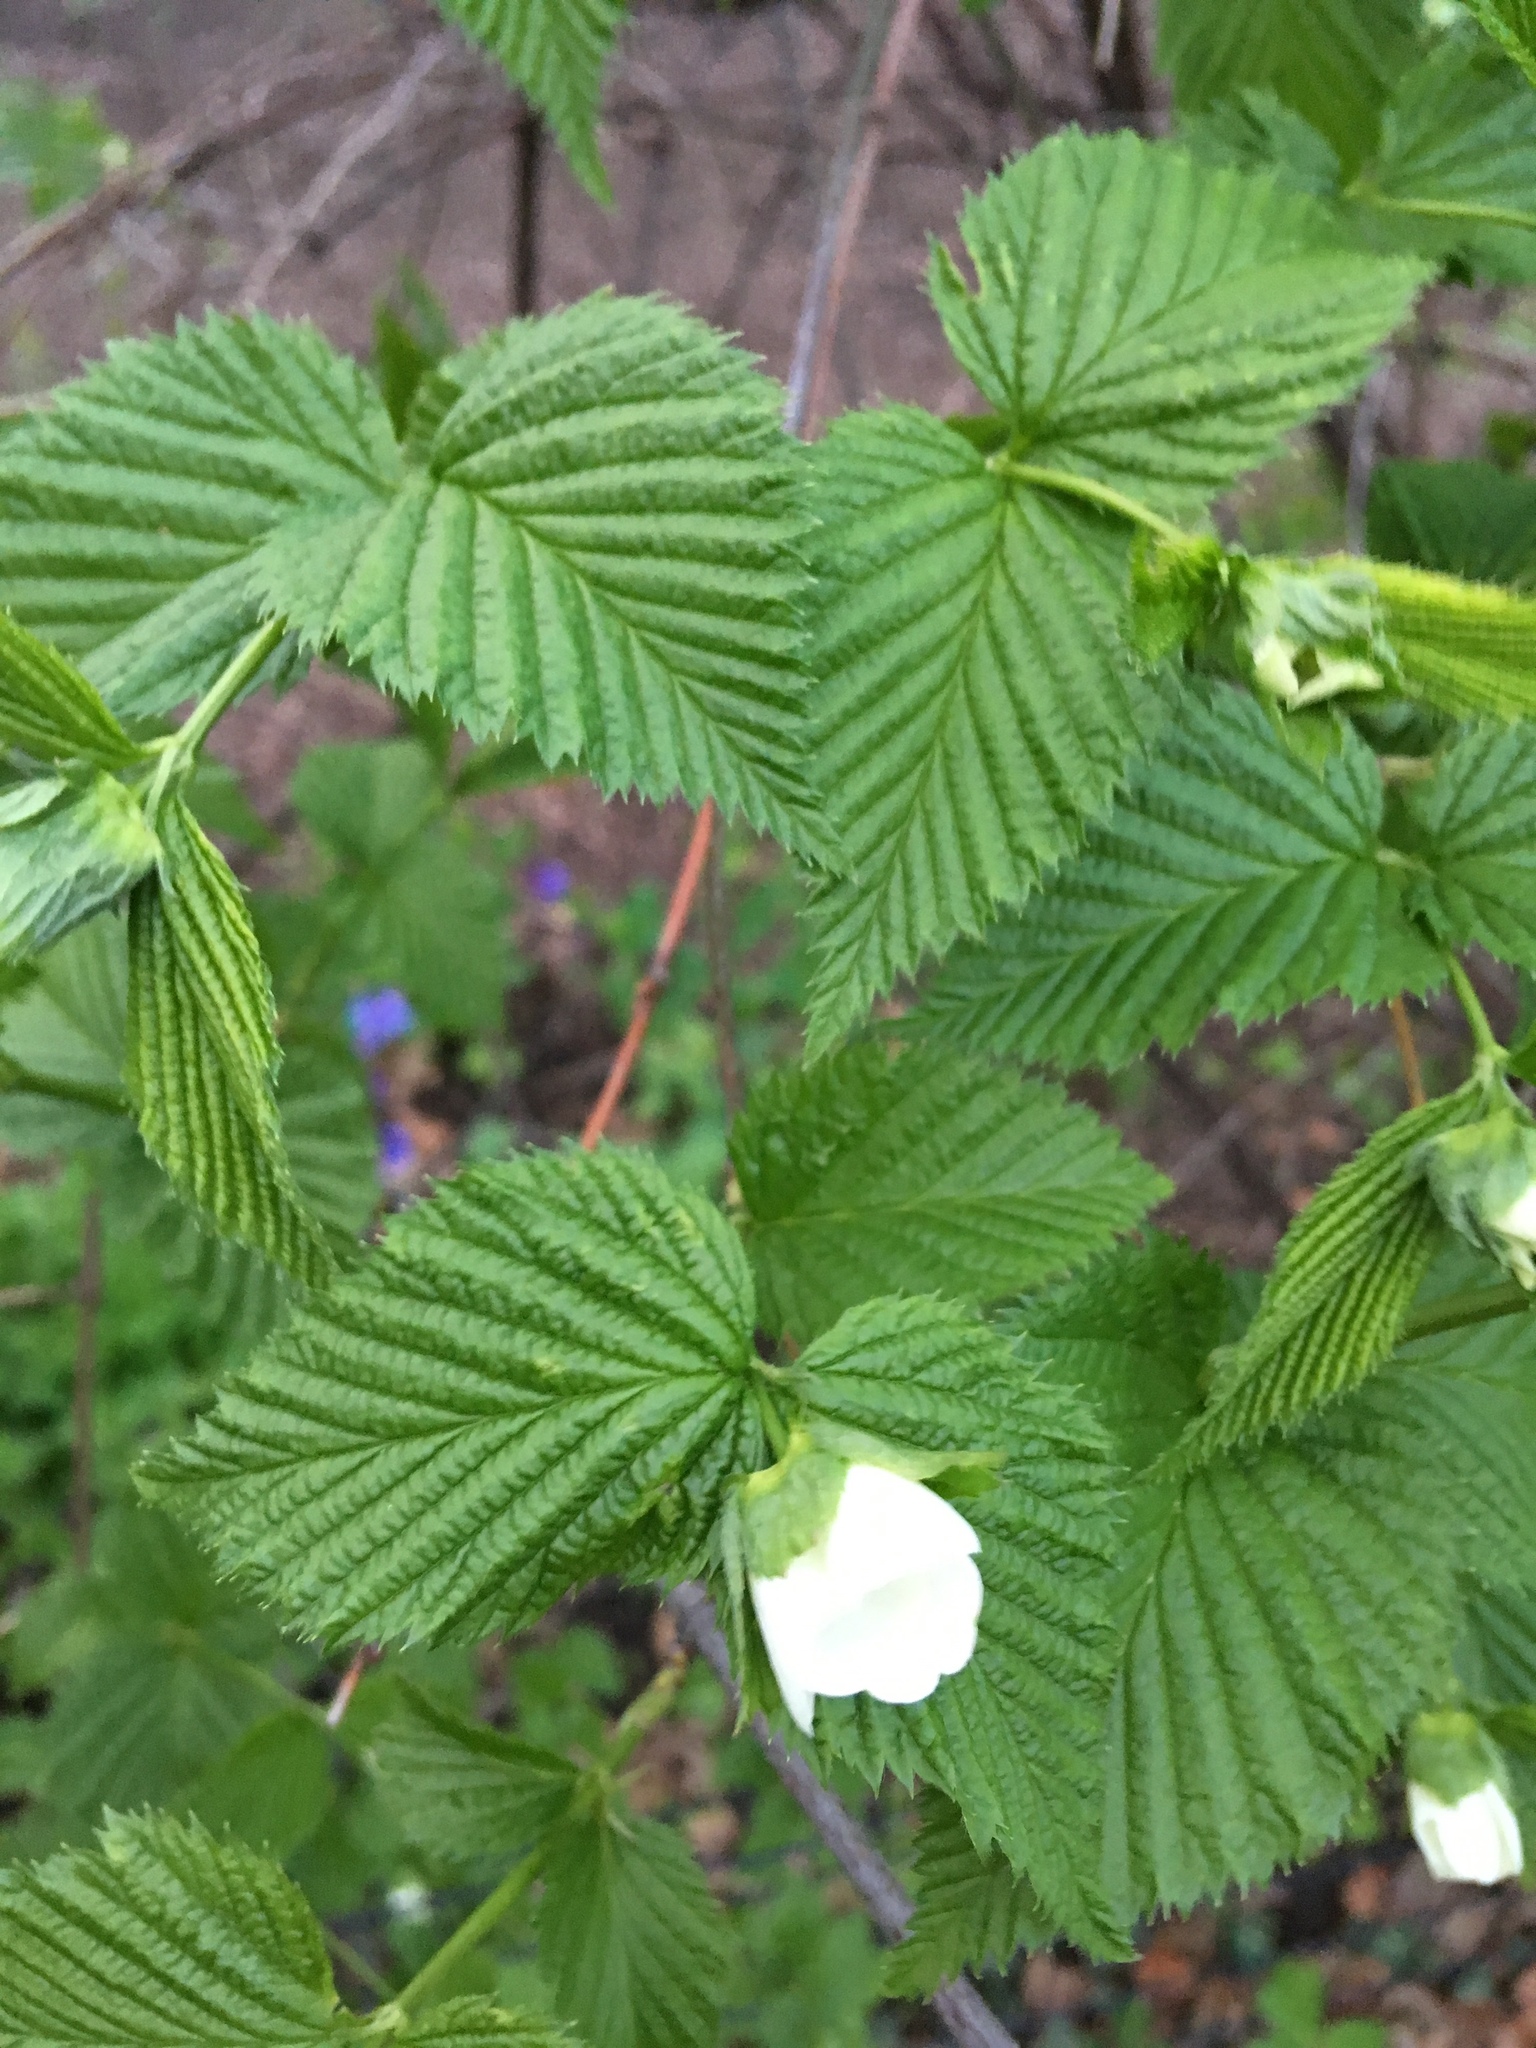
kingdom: Plantae
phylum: Tracheophyta
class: Magnoliopsida
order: Rosales
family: Rosaceae
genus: Rhodotypos
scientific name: Rhodotypos scandens
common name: Jetbead
